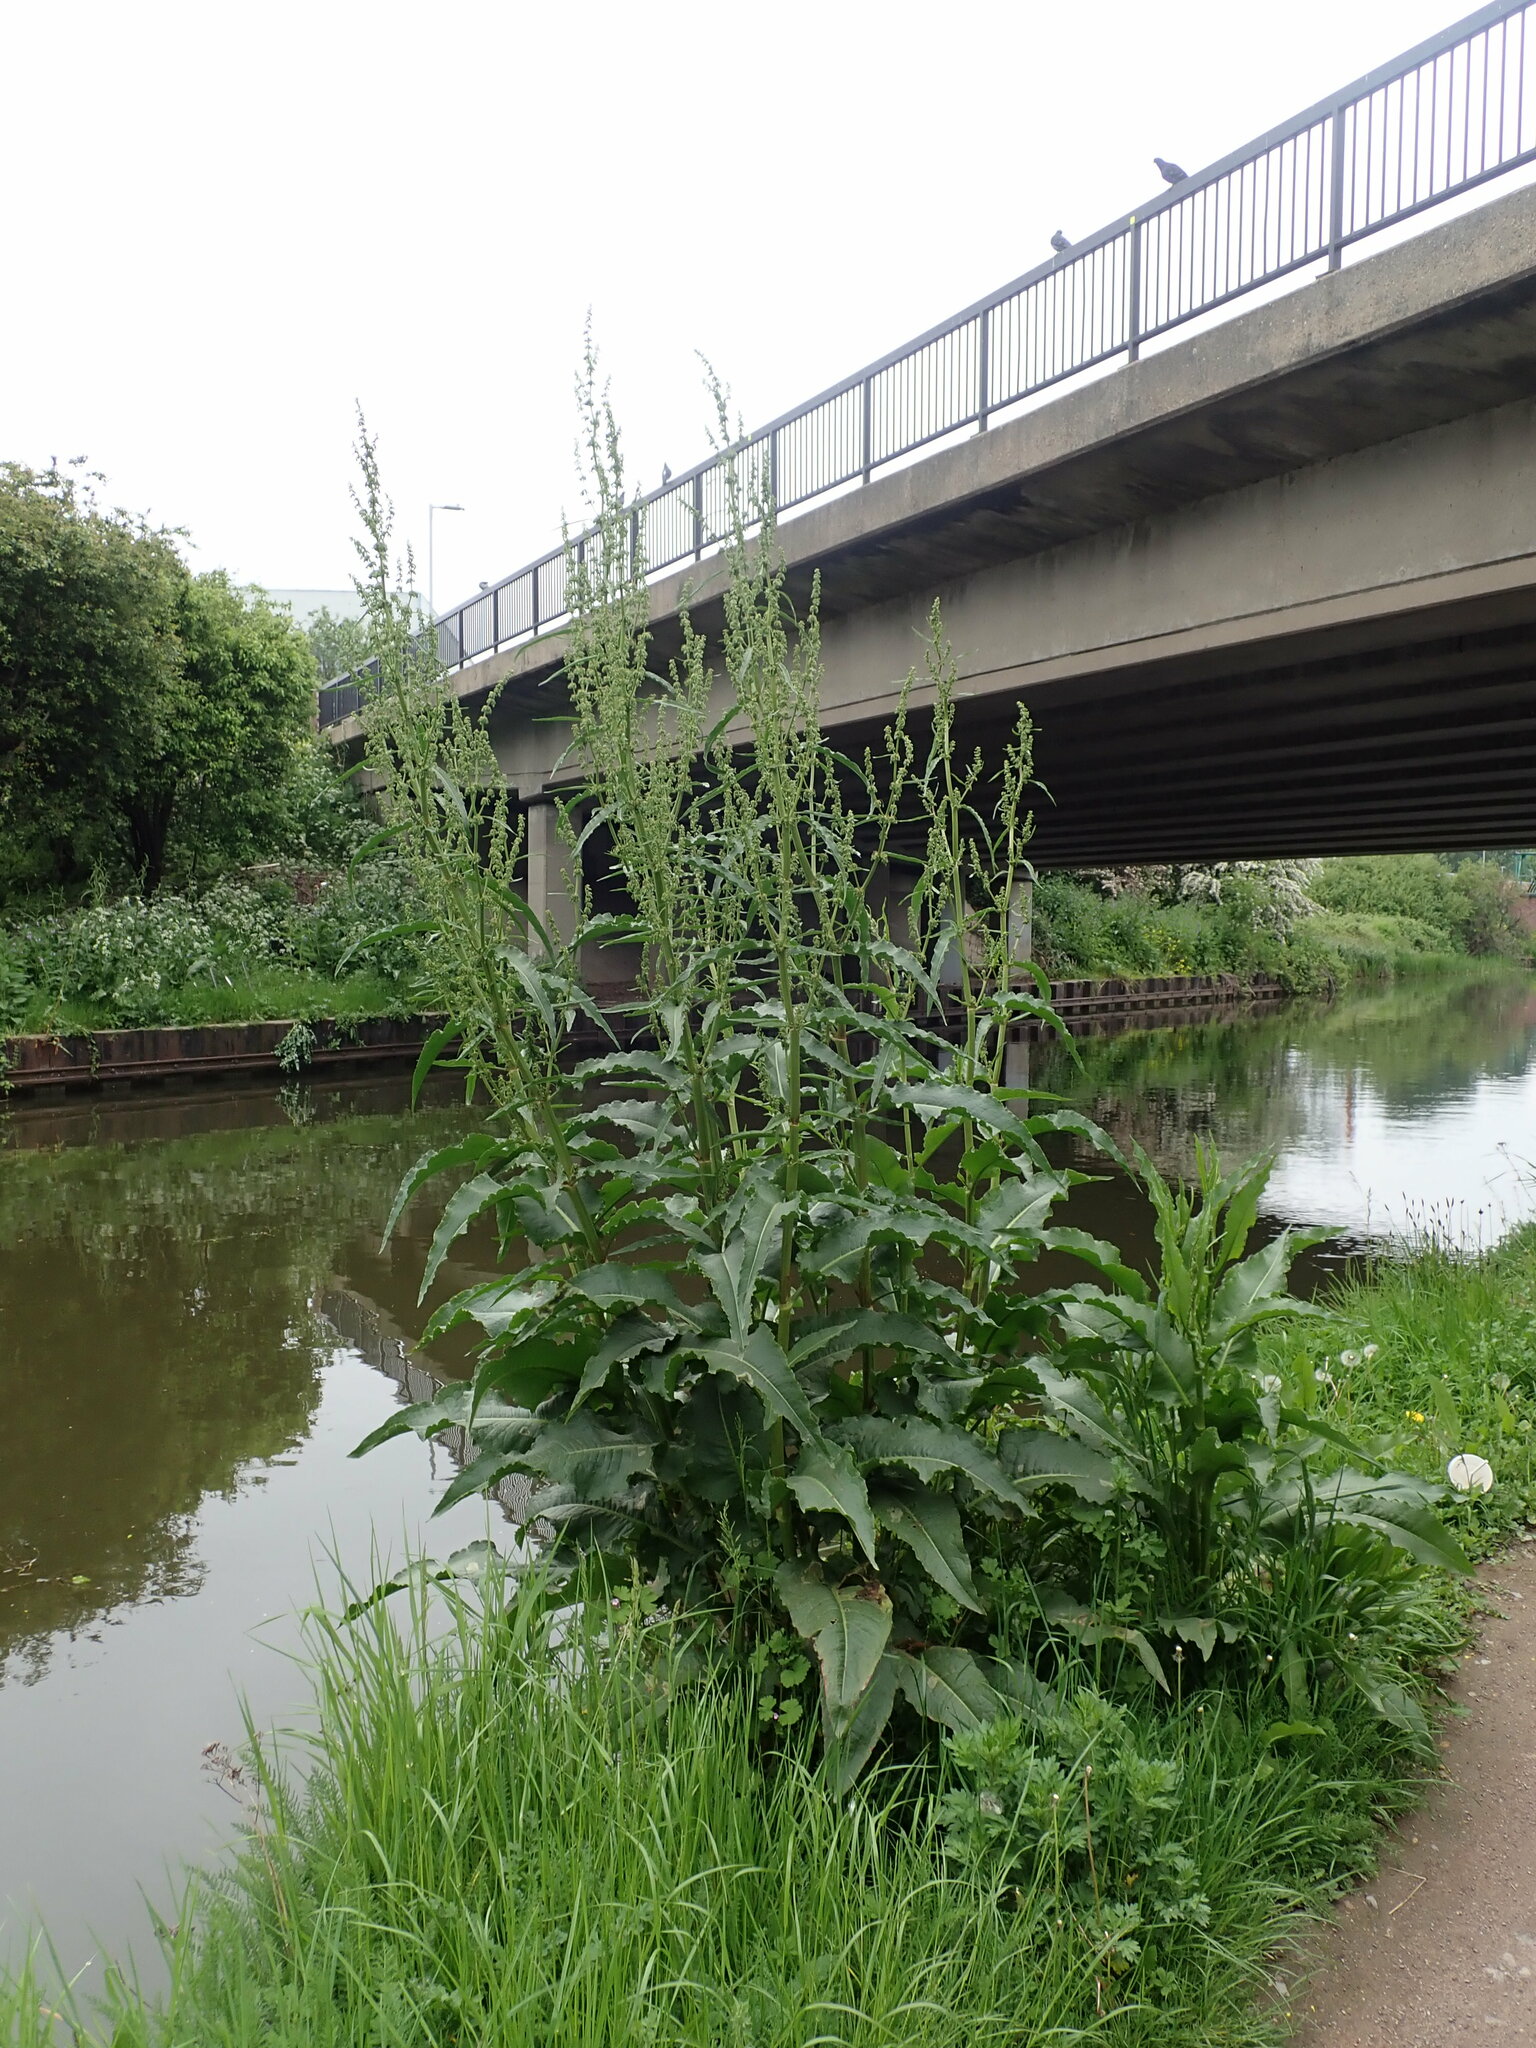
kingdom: Plantae
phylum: Tracheophyta
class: Magnoliopsida
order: Caryophyllales
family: Polygonaceae
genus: Rumex
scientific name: Rumex cristatus
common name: Greek dock
